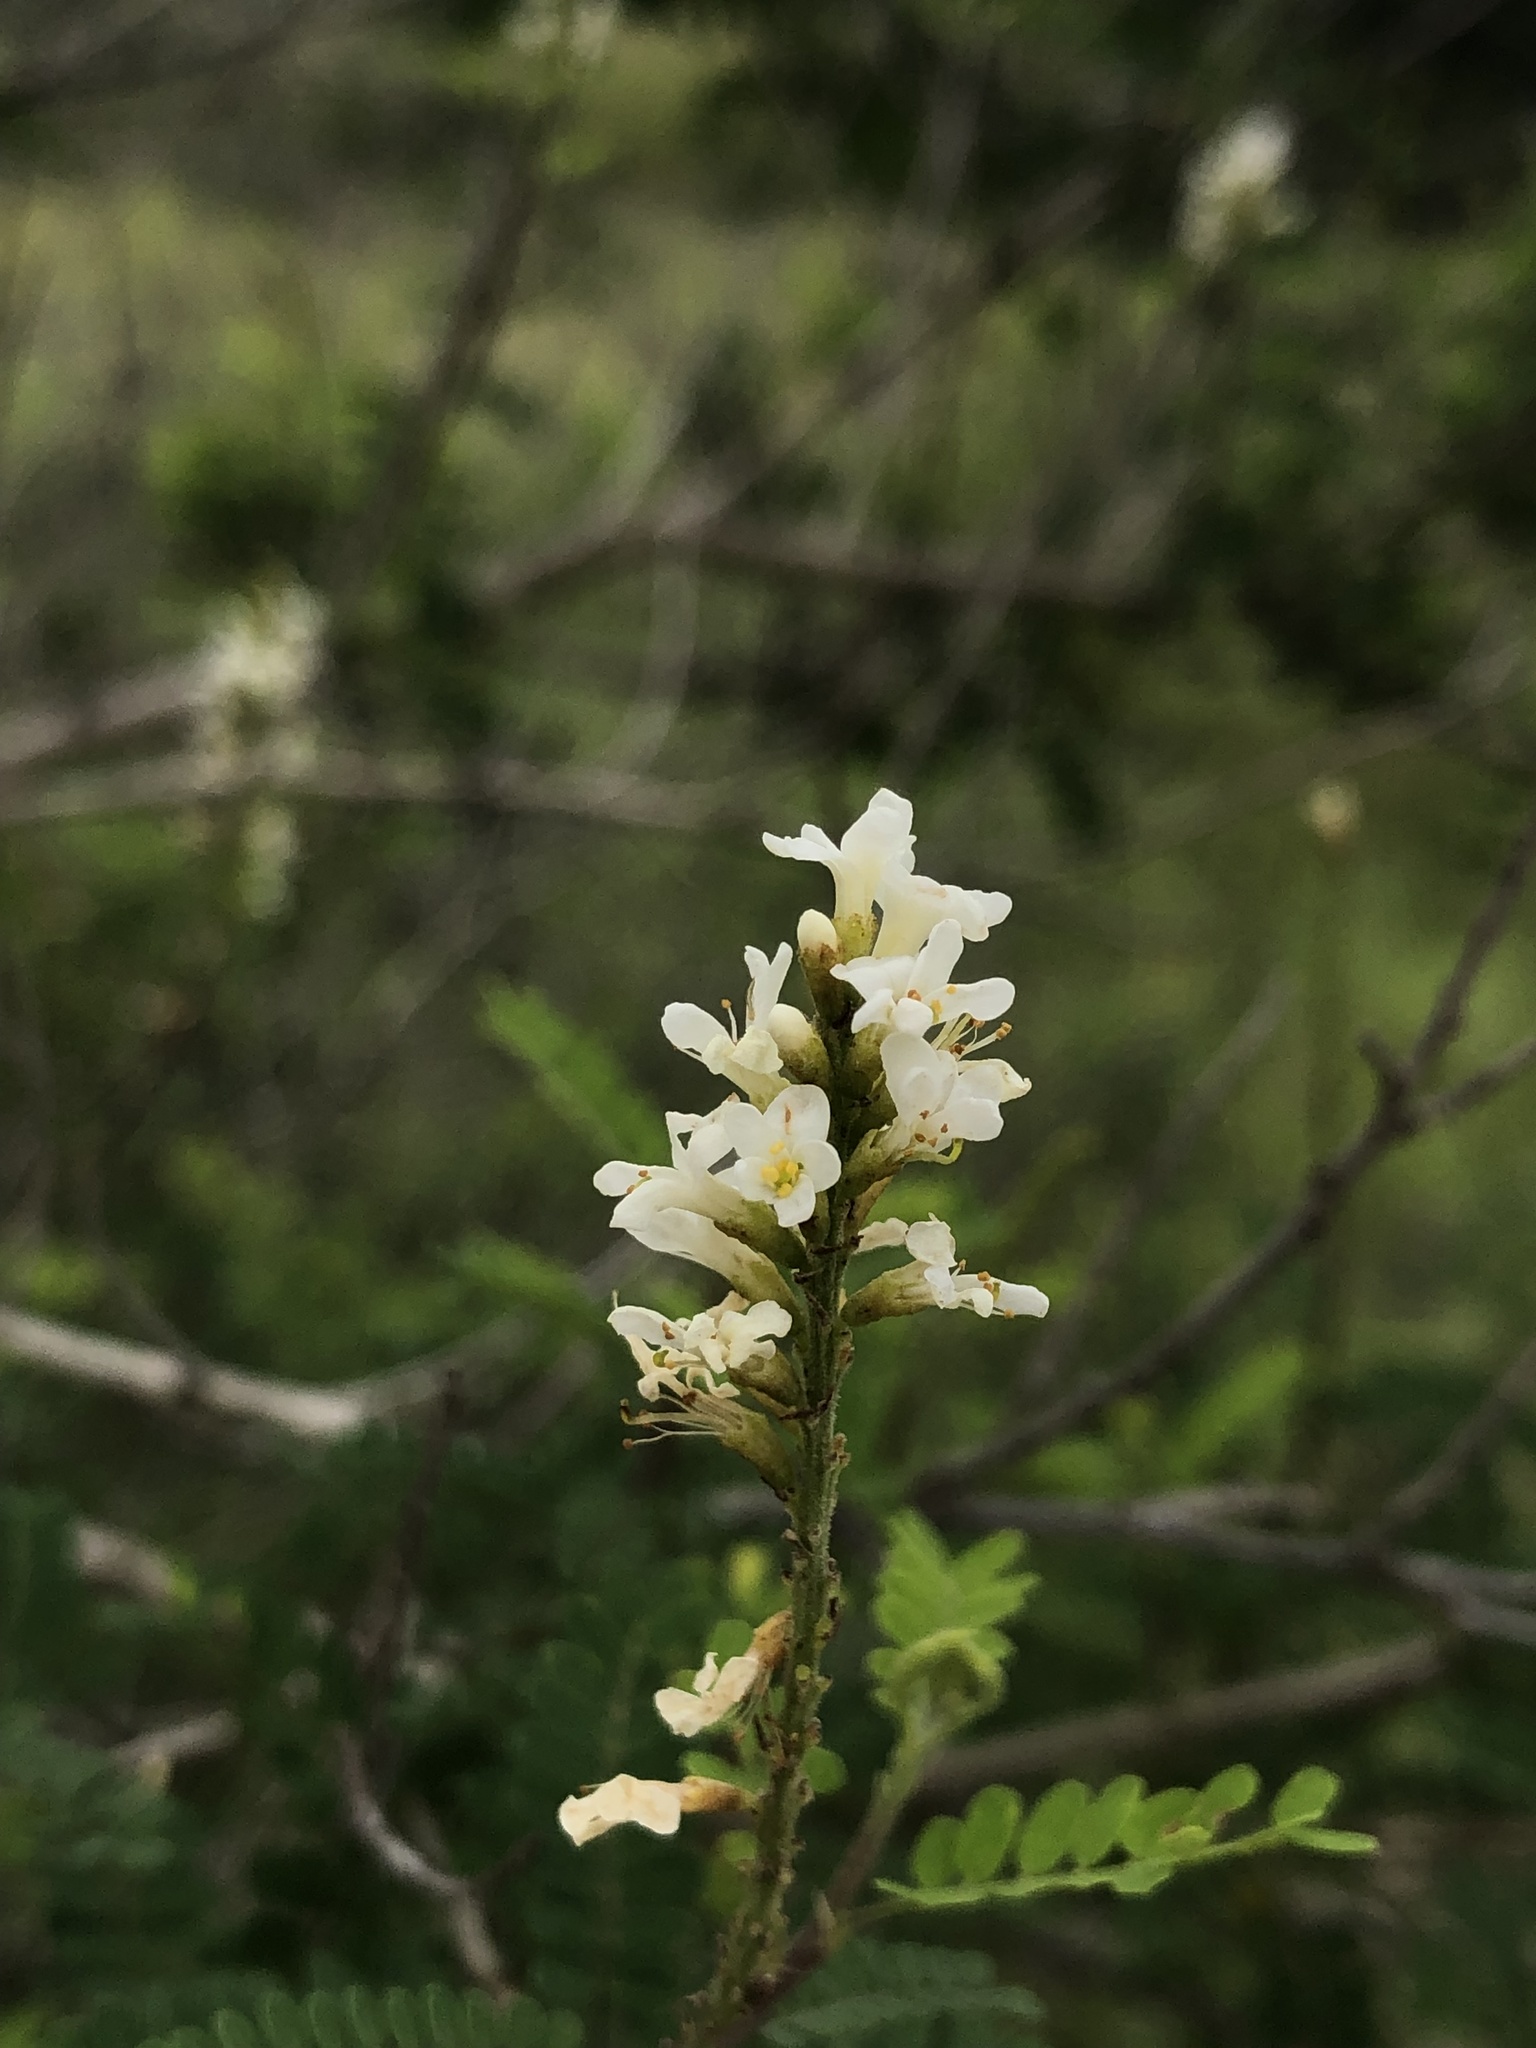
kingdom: Plantae
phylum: Tracheophyta
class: Magnoliopsida
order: Fabales
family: Fabaceae
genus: Eysenhardtia
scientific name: Eysenhardtia texana
